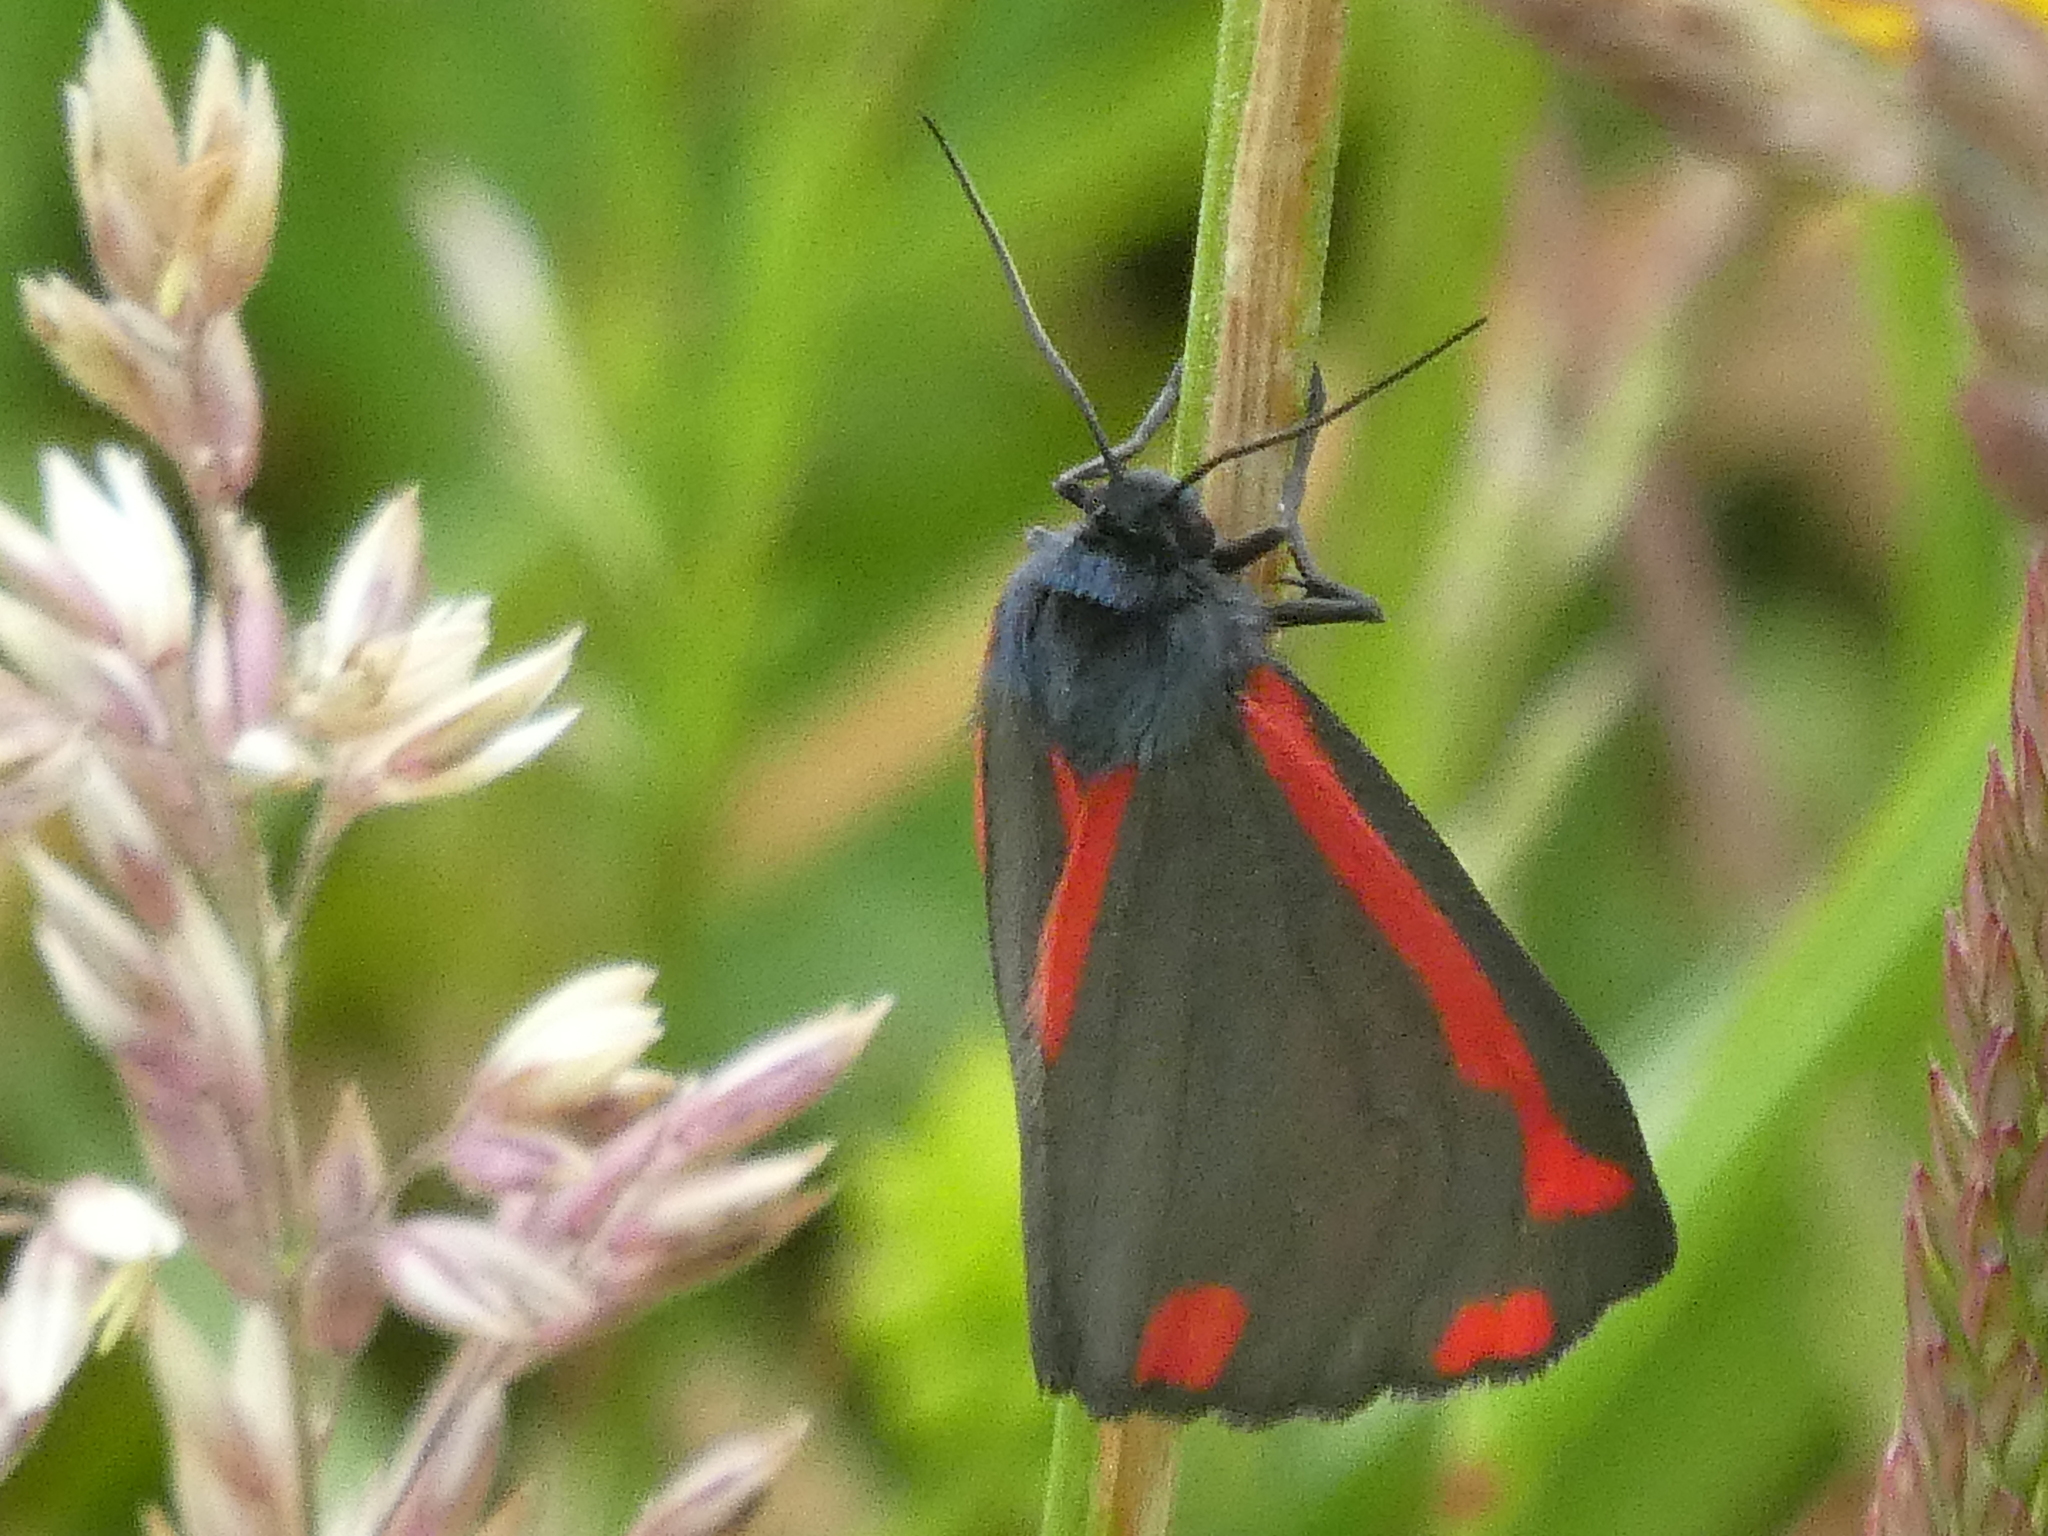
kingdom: Animalia
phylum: Arthropoda
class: Insecta
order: Lepidoptera
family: Erebidae
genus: Tyria
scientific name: Tyria jacobaeae
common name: Cinnabar
